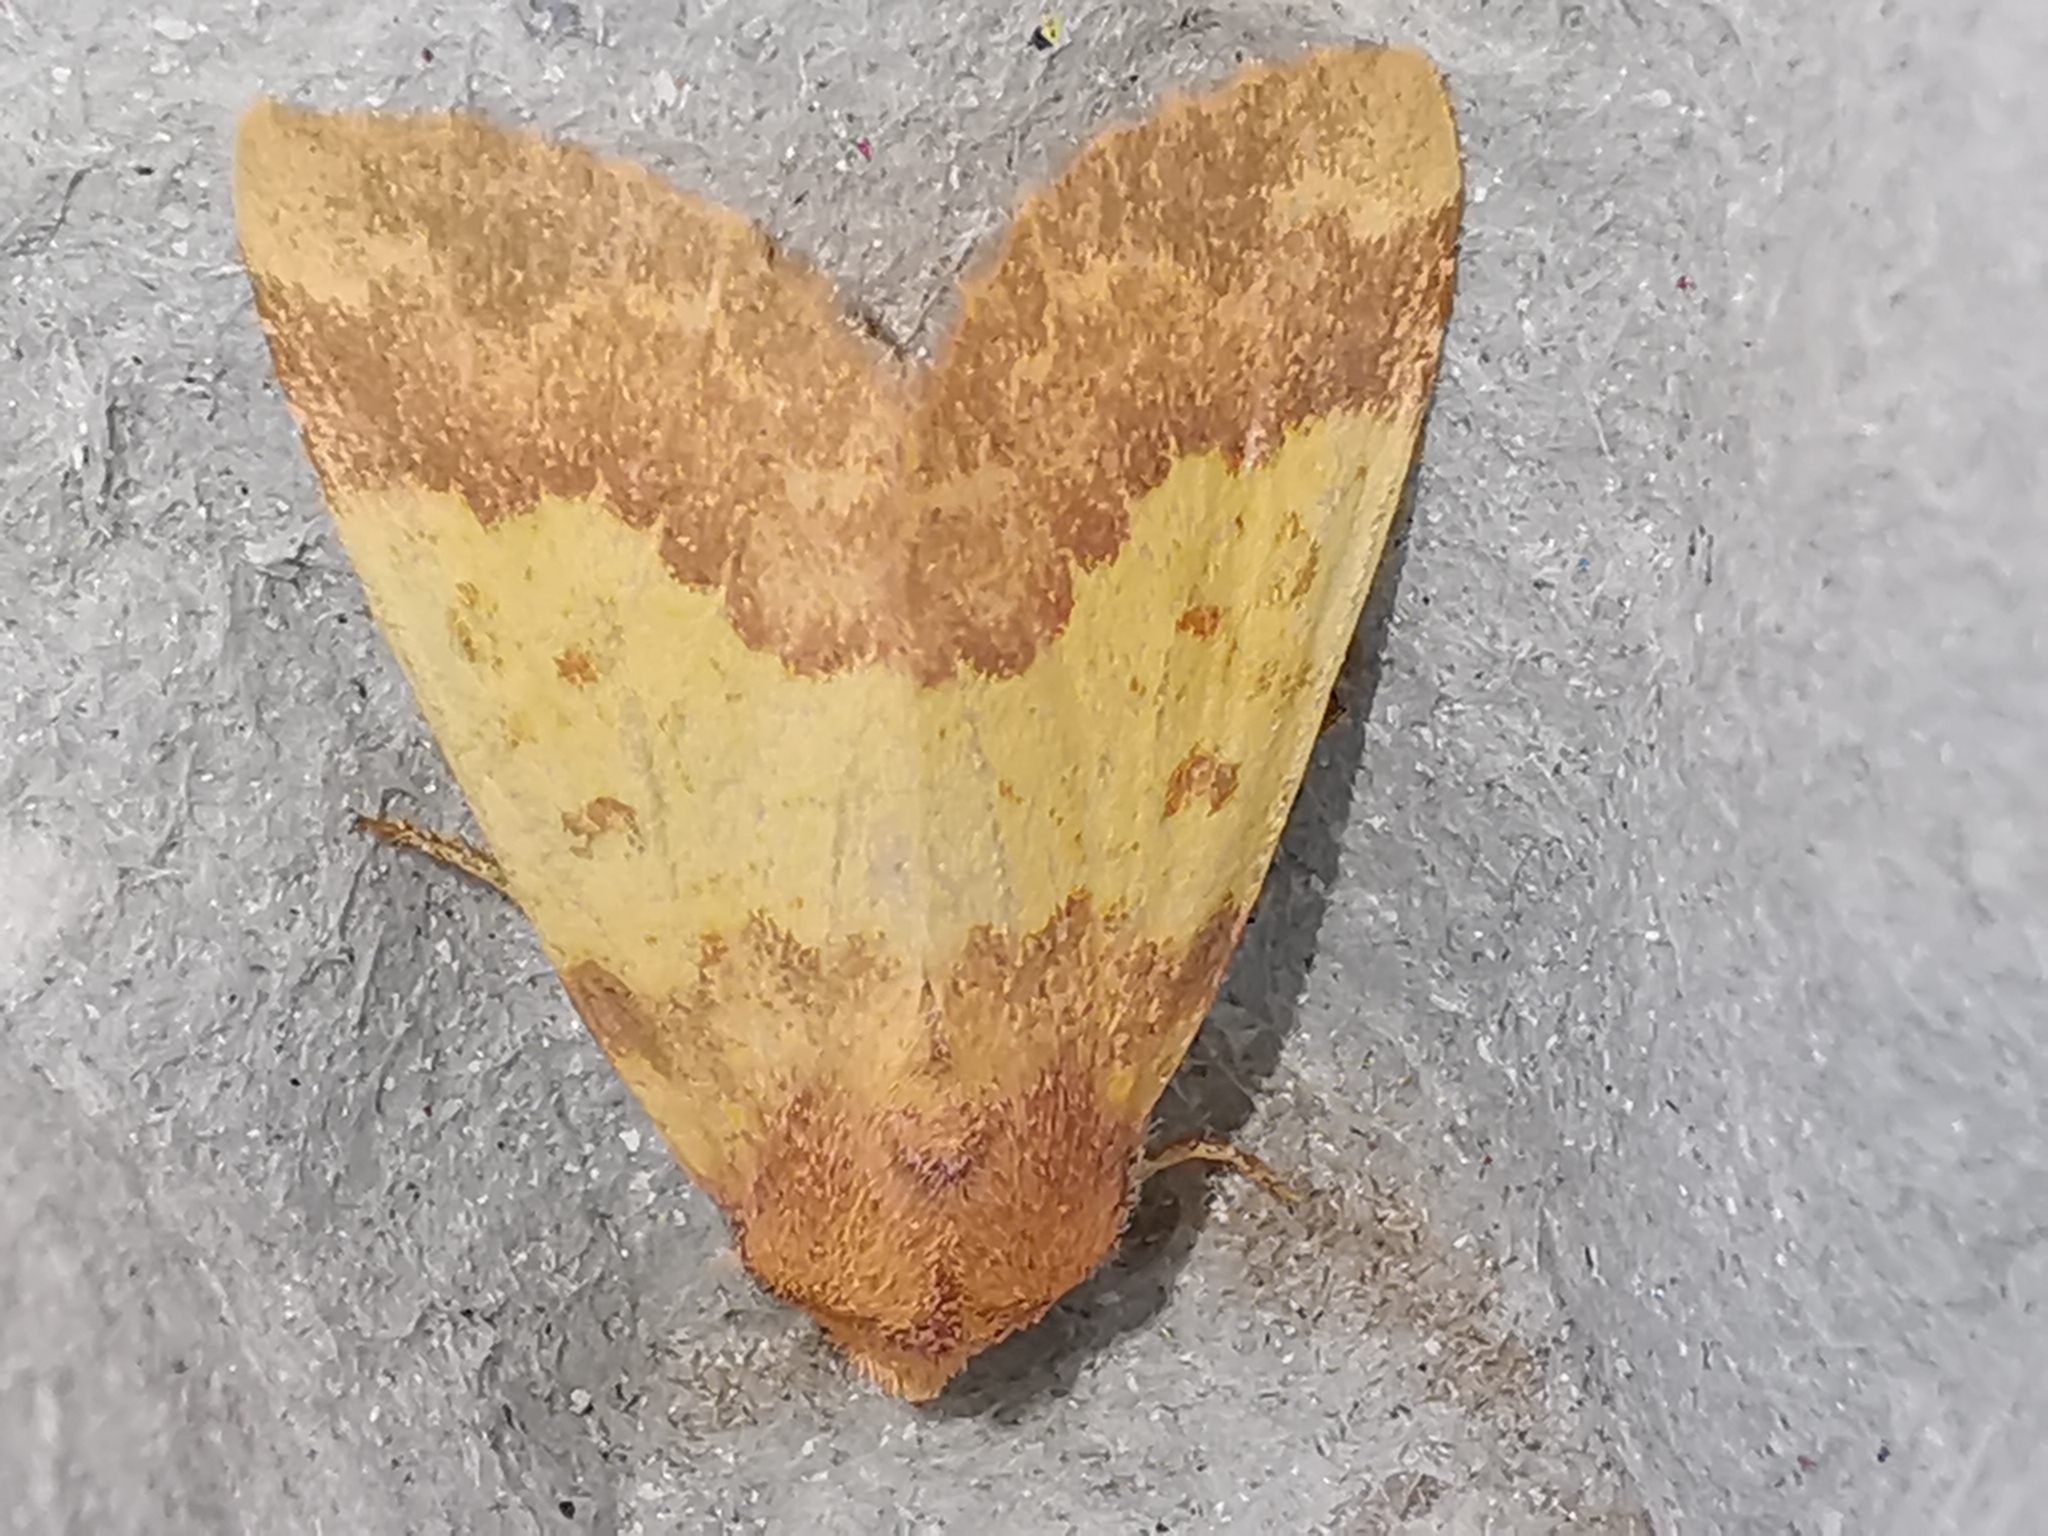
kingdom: Animalia
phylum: Arthropoda
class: Insecta
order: Lepidoptera
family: Noctuidae
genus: Tiliacea
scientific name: Tiliacea aurago
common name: Barred sallow
